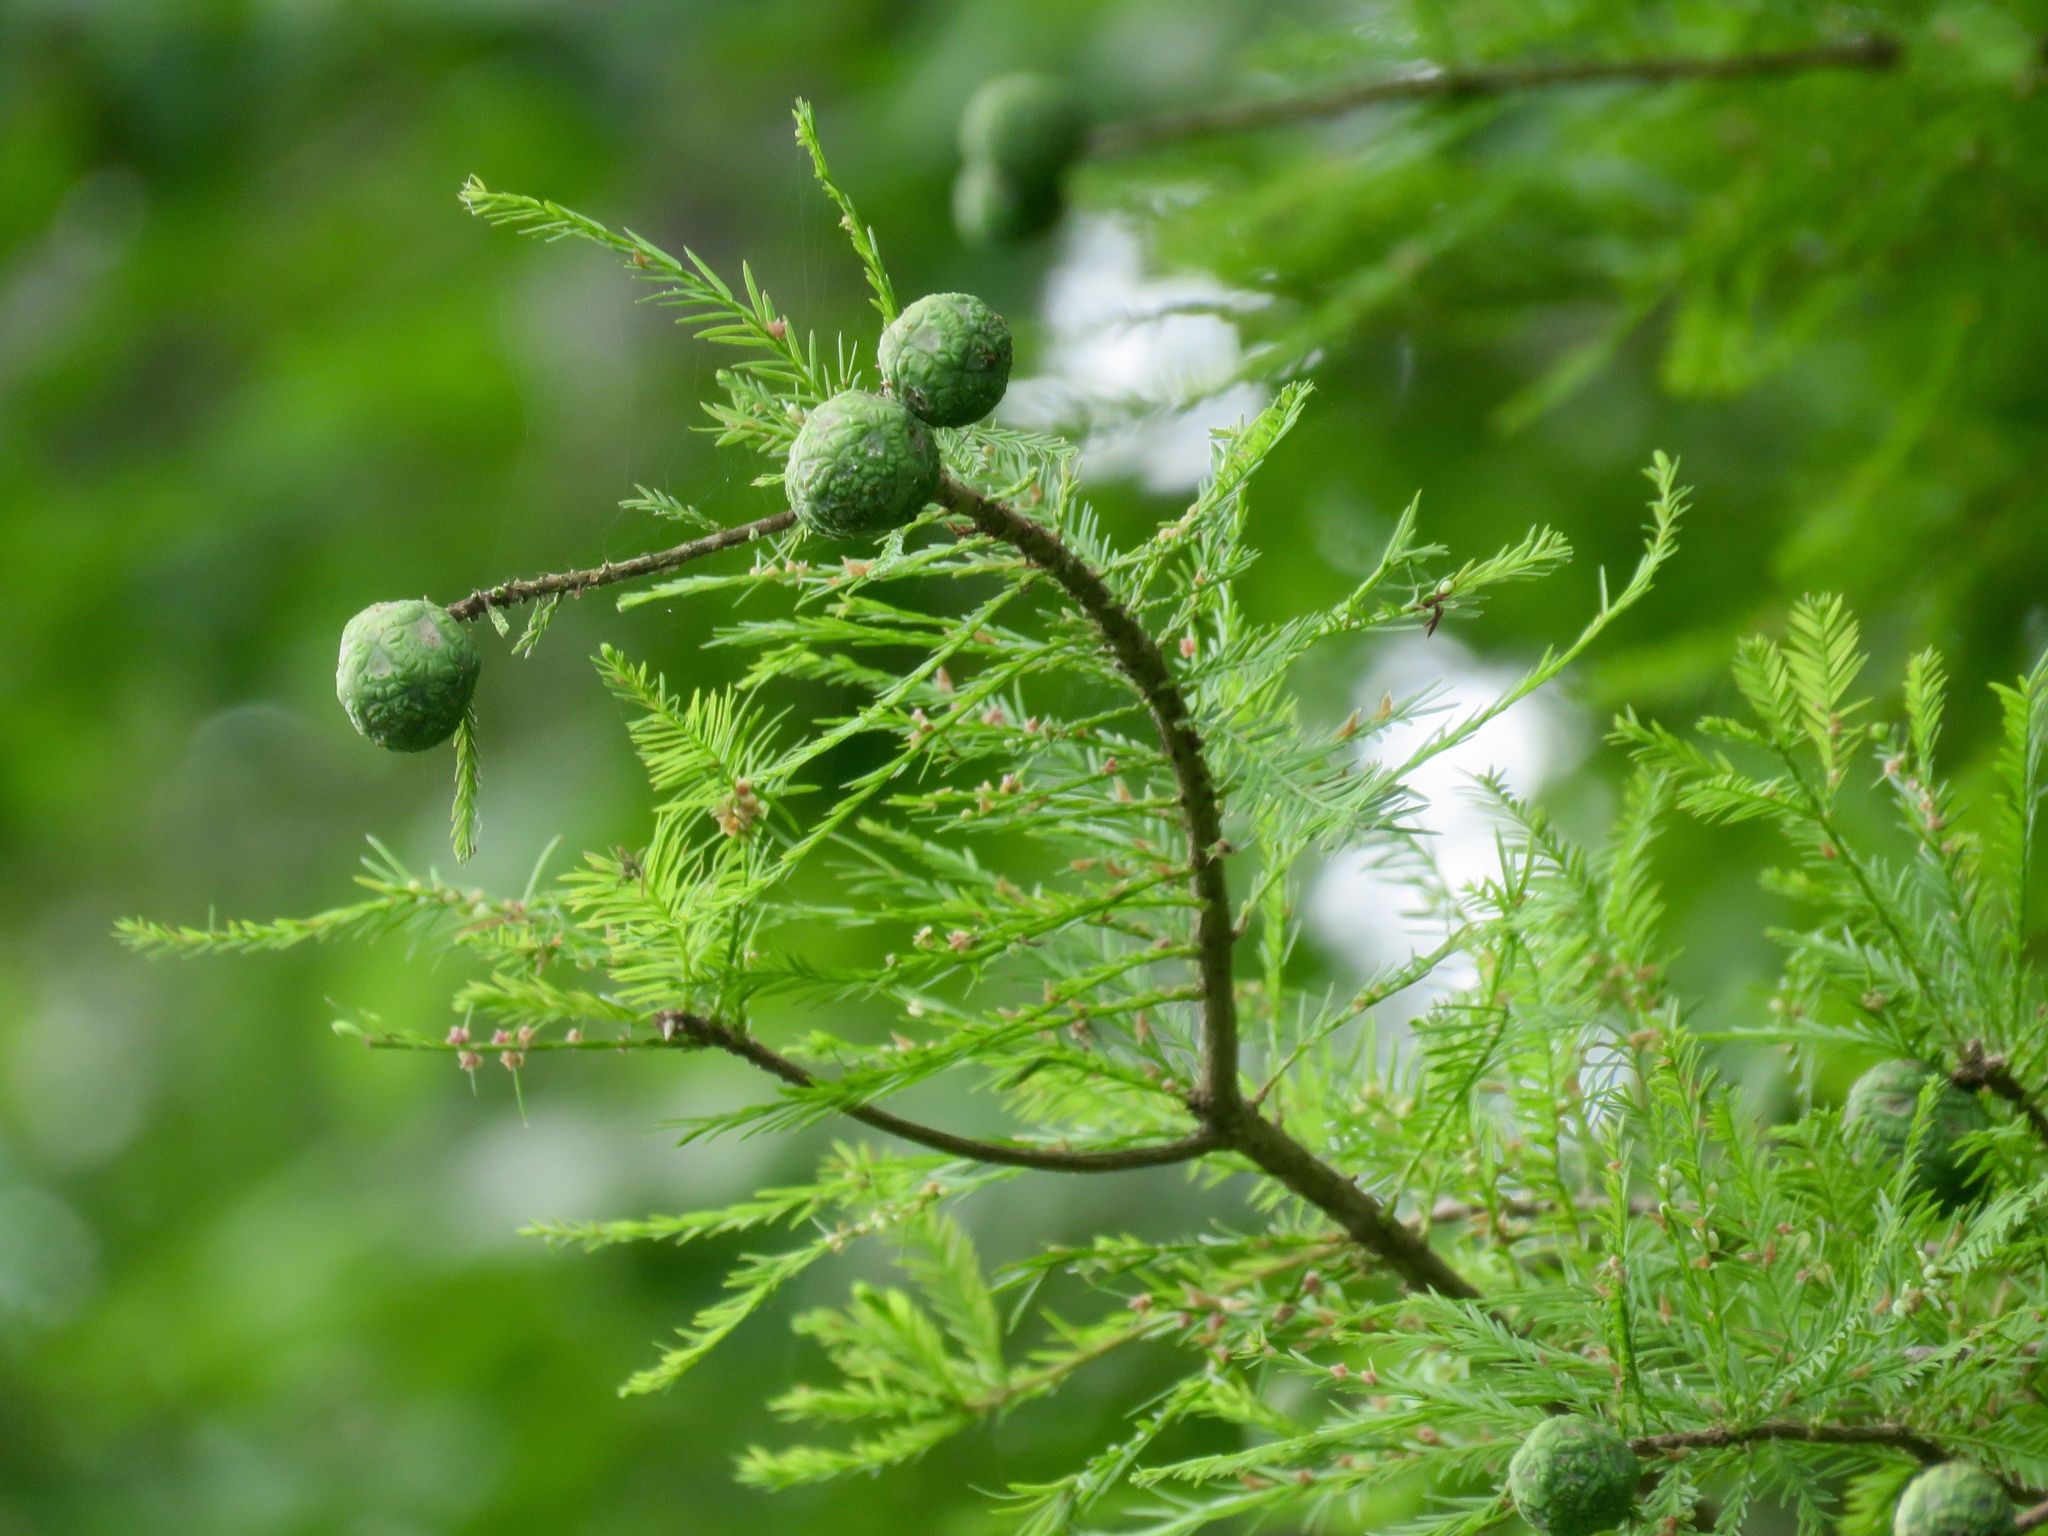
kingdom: Plantae
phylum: Tracheophyta
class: Pinopsida
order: Pinales
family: Cupressaceae
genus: Taxodium
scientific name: Taxodium distichum
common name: Bald cypress
